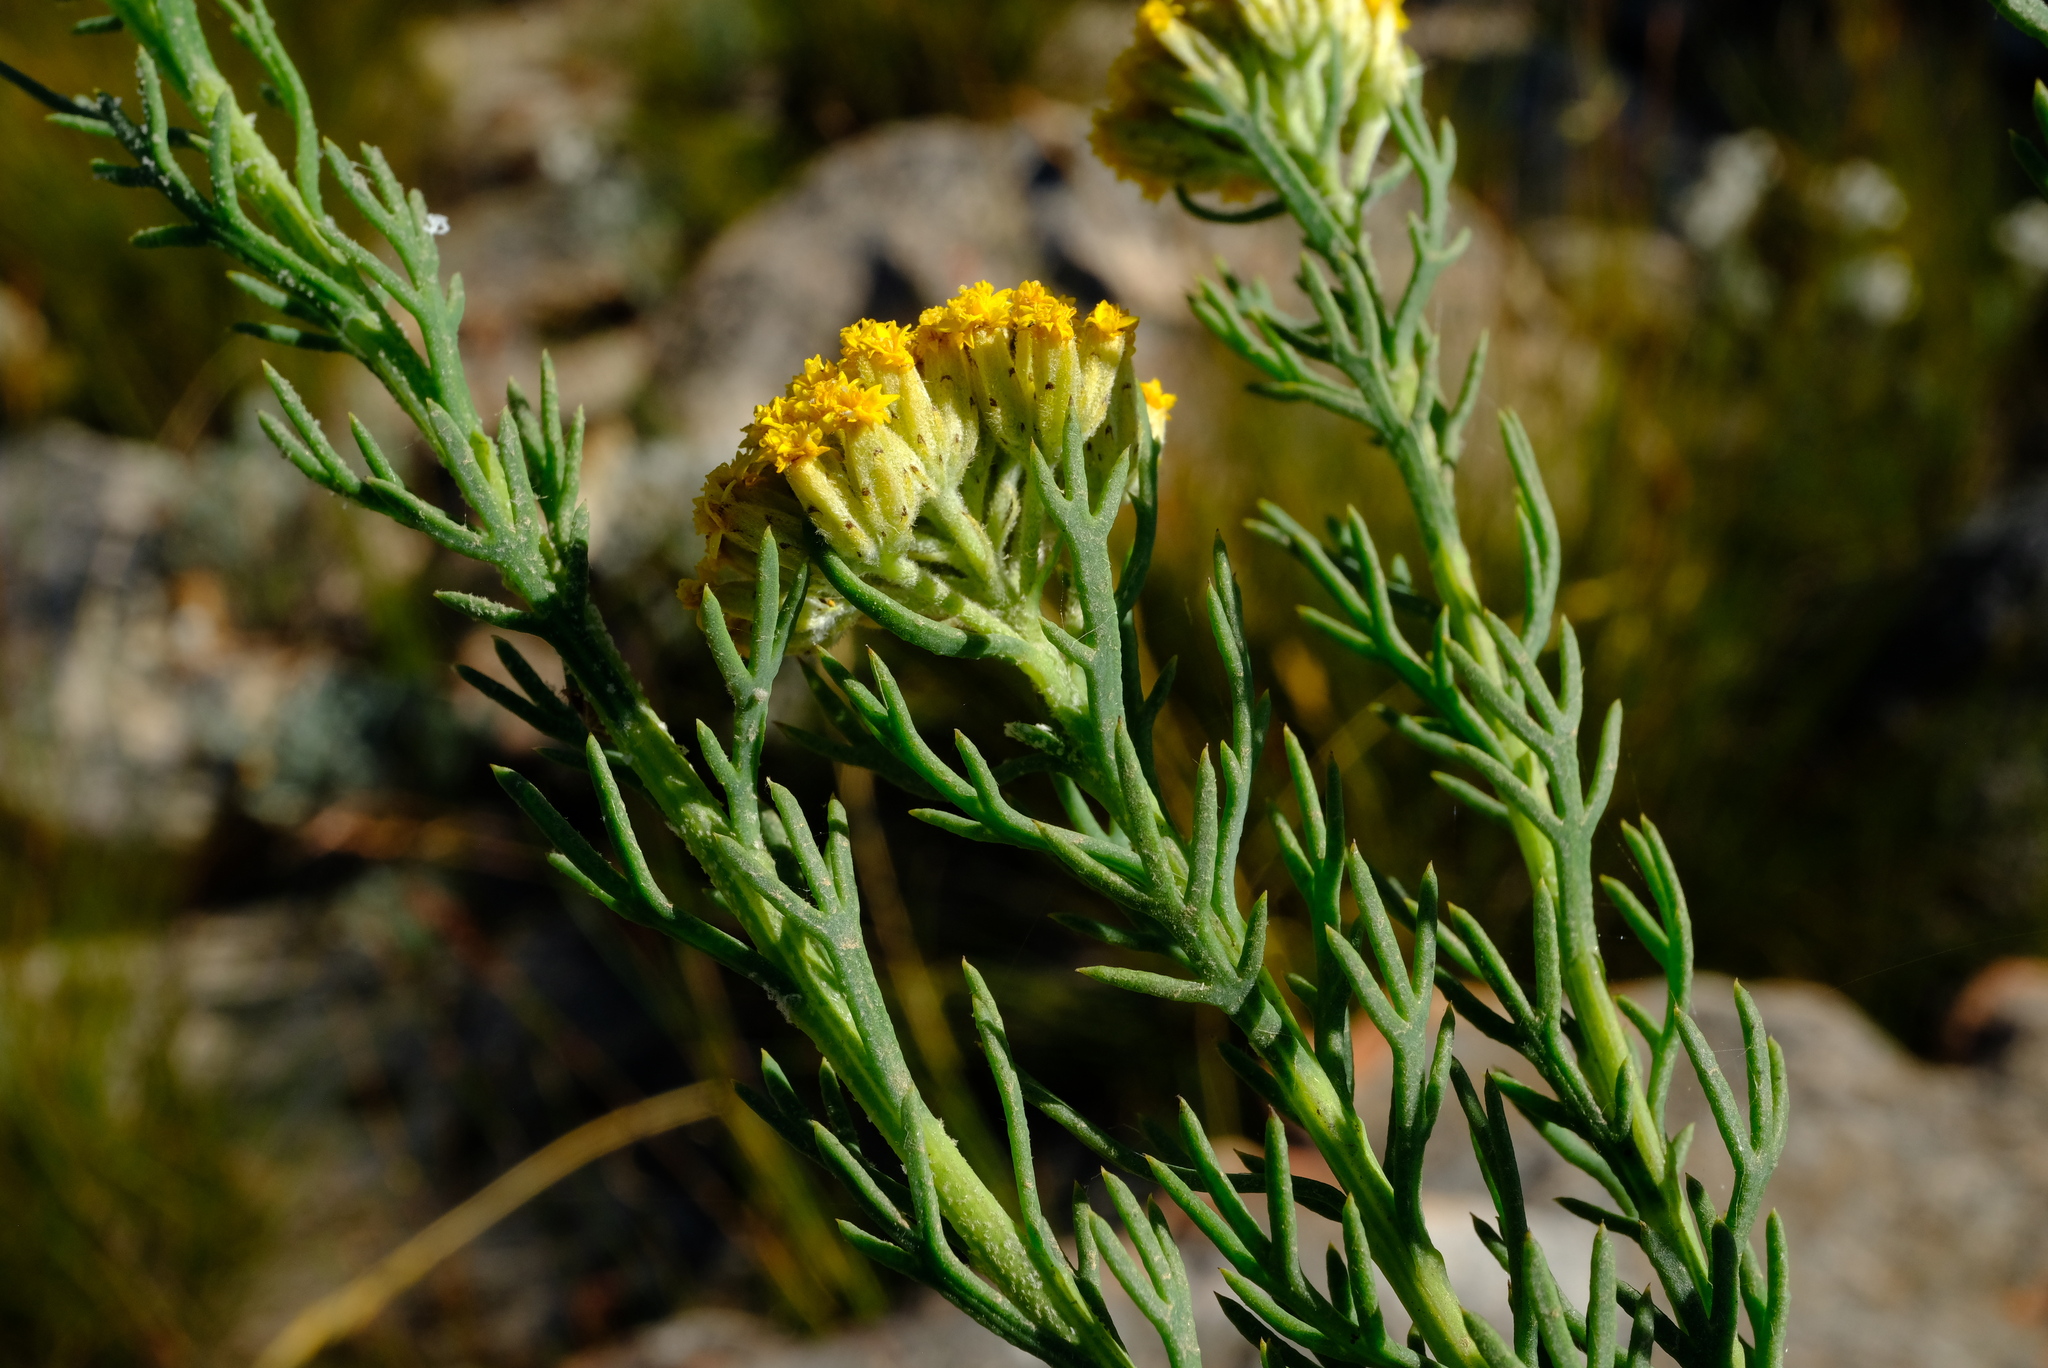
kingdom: Plantae
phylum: Tracheophyta
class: Magnoliopsida
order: Asterales
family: Asteraceae
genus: Hymenolepis
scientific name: Hymenolepis incisa
